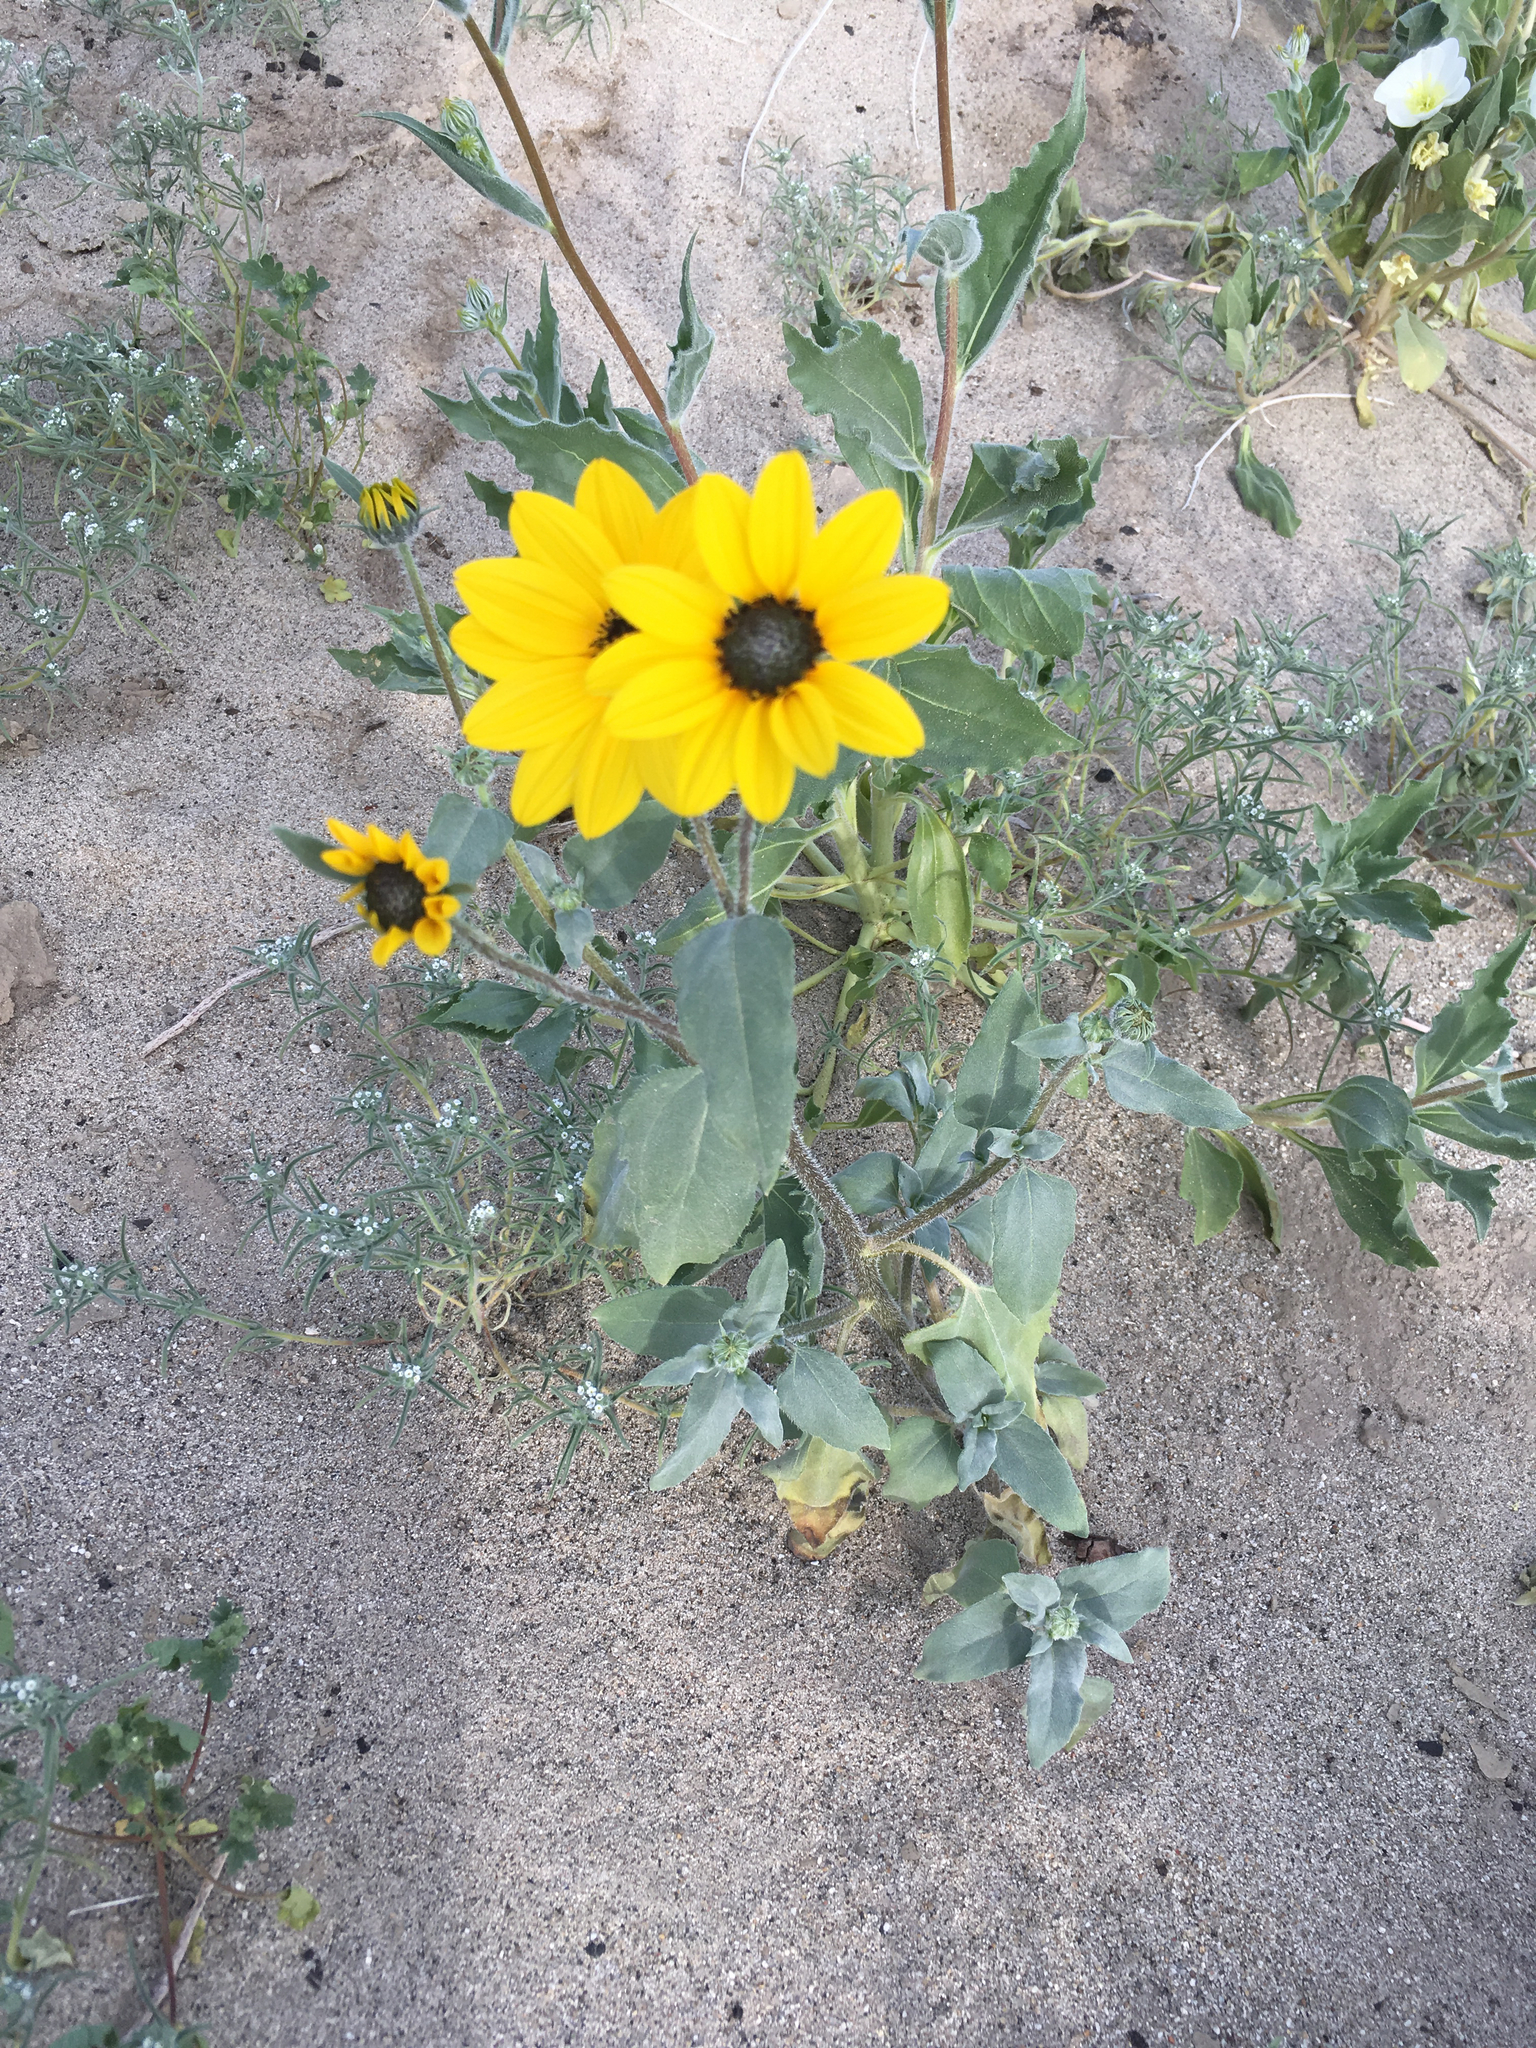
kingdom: Plantae
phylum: Tracheophyta
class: Magnoliopsida
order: Asterales
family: Asteraceae
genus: Helianthus
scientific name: Helianthus petiolaris
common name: Lesser sunflower
